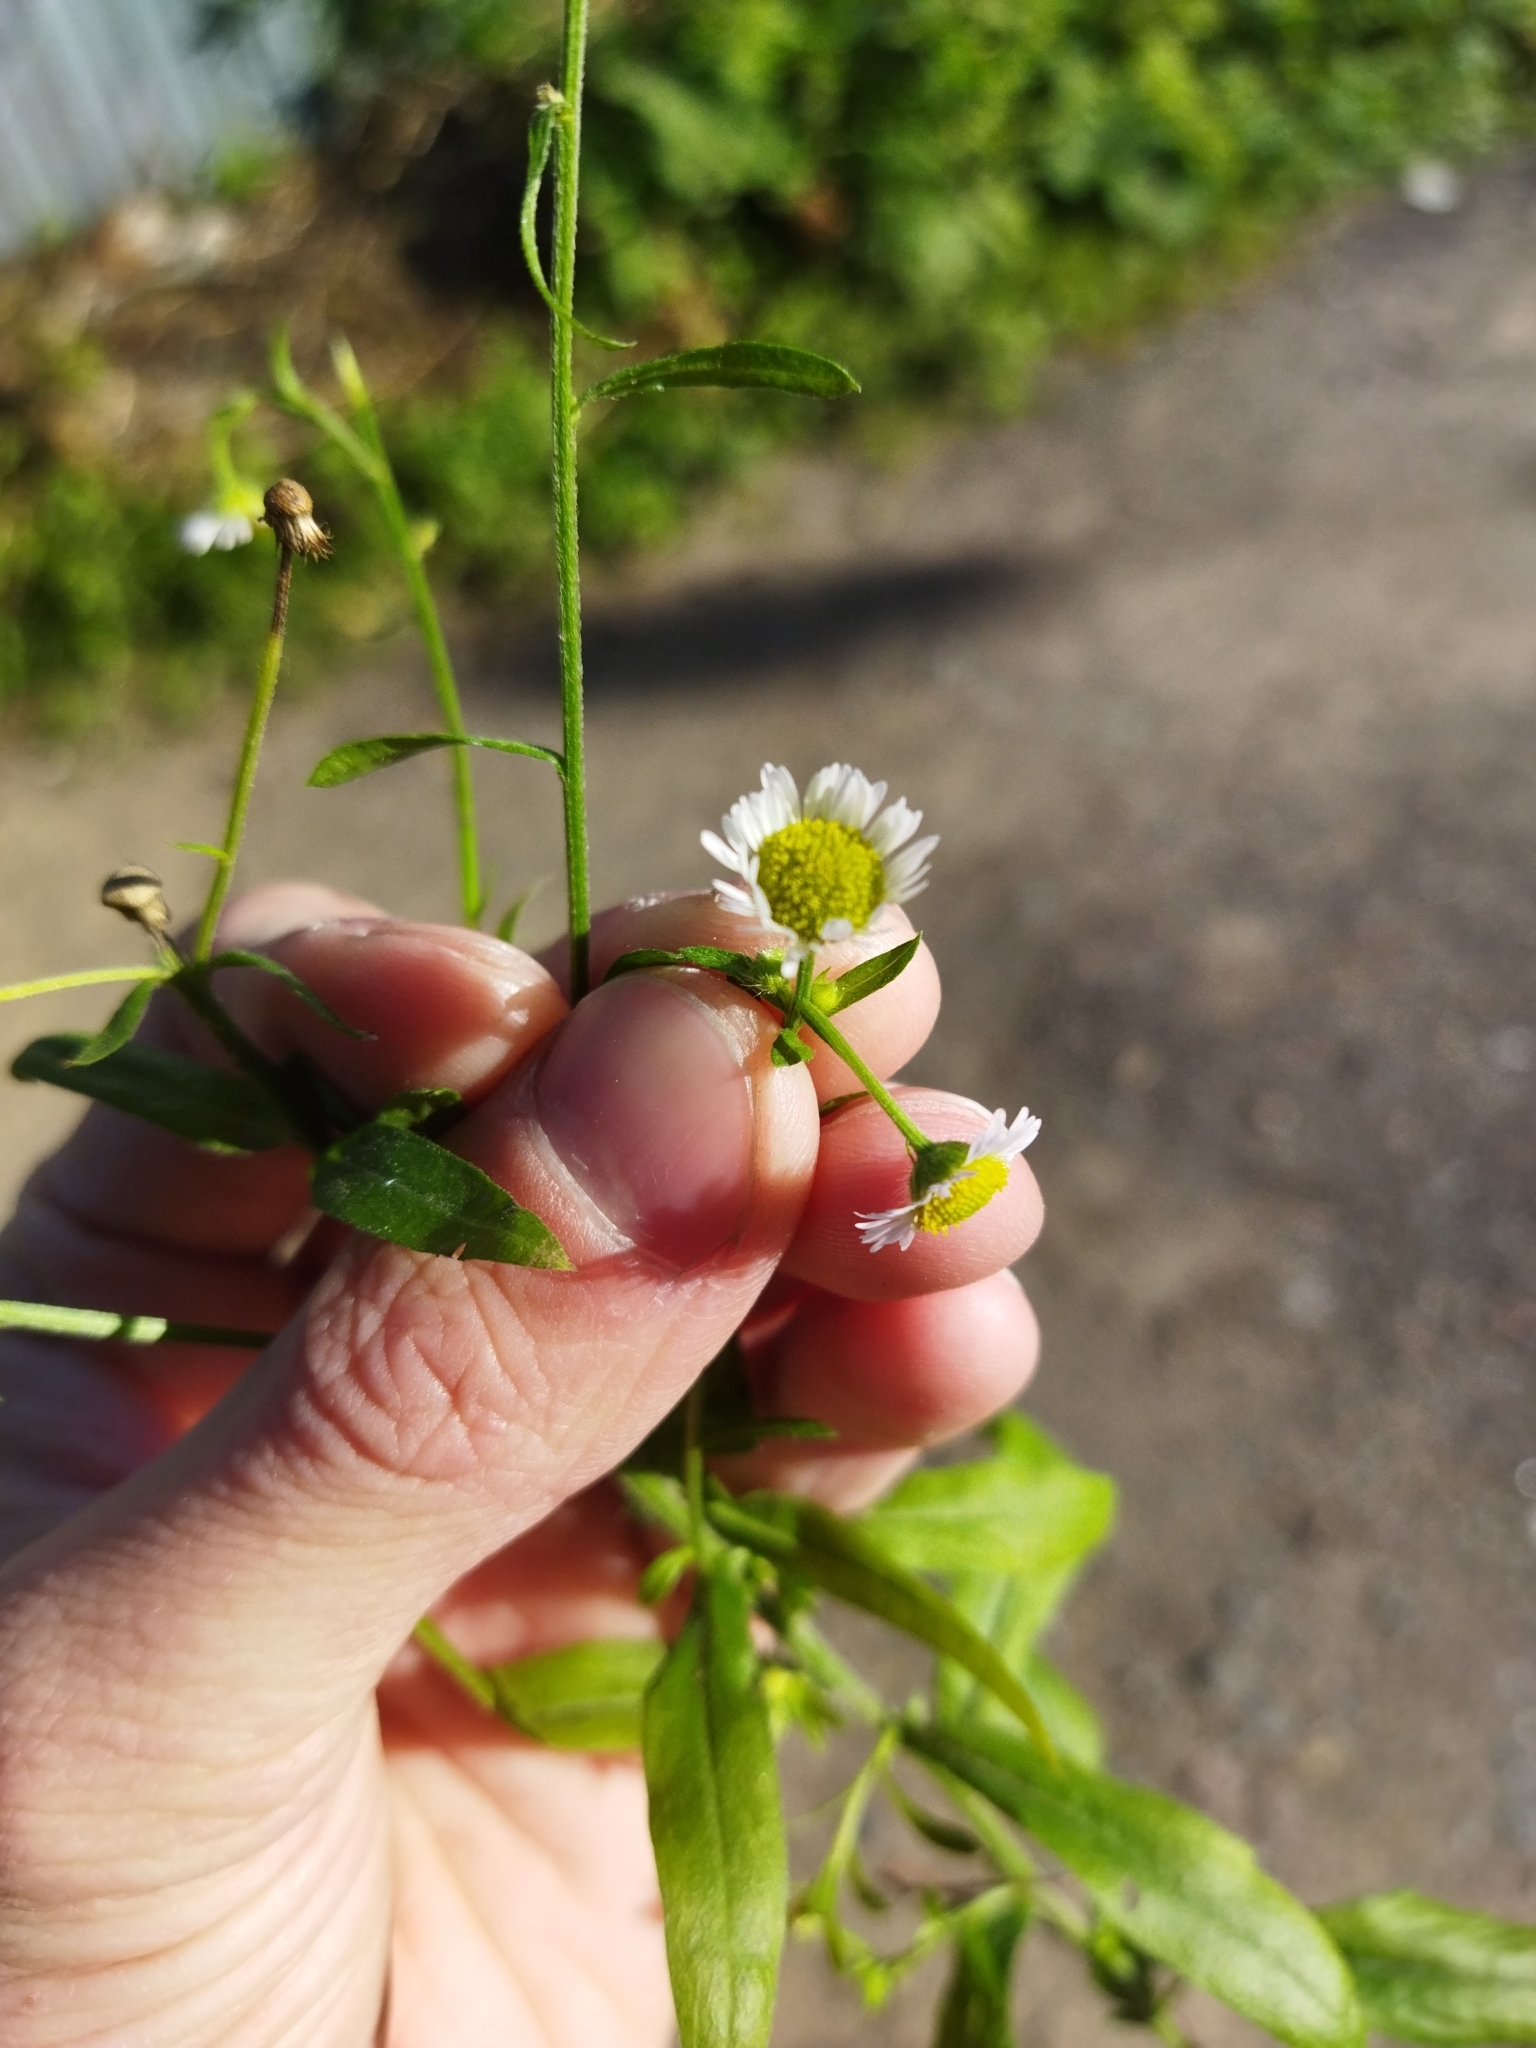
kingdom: Plantae
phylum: Tracheophyta
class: Magnoliopsida
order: Asterales
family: Asteraceae
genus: Erigeron
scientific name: Erigeron annuus
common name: Tall fleabane
